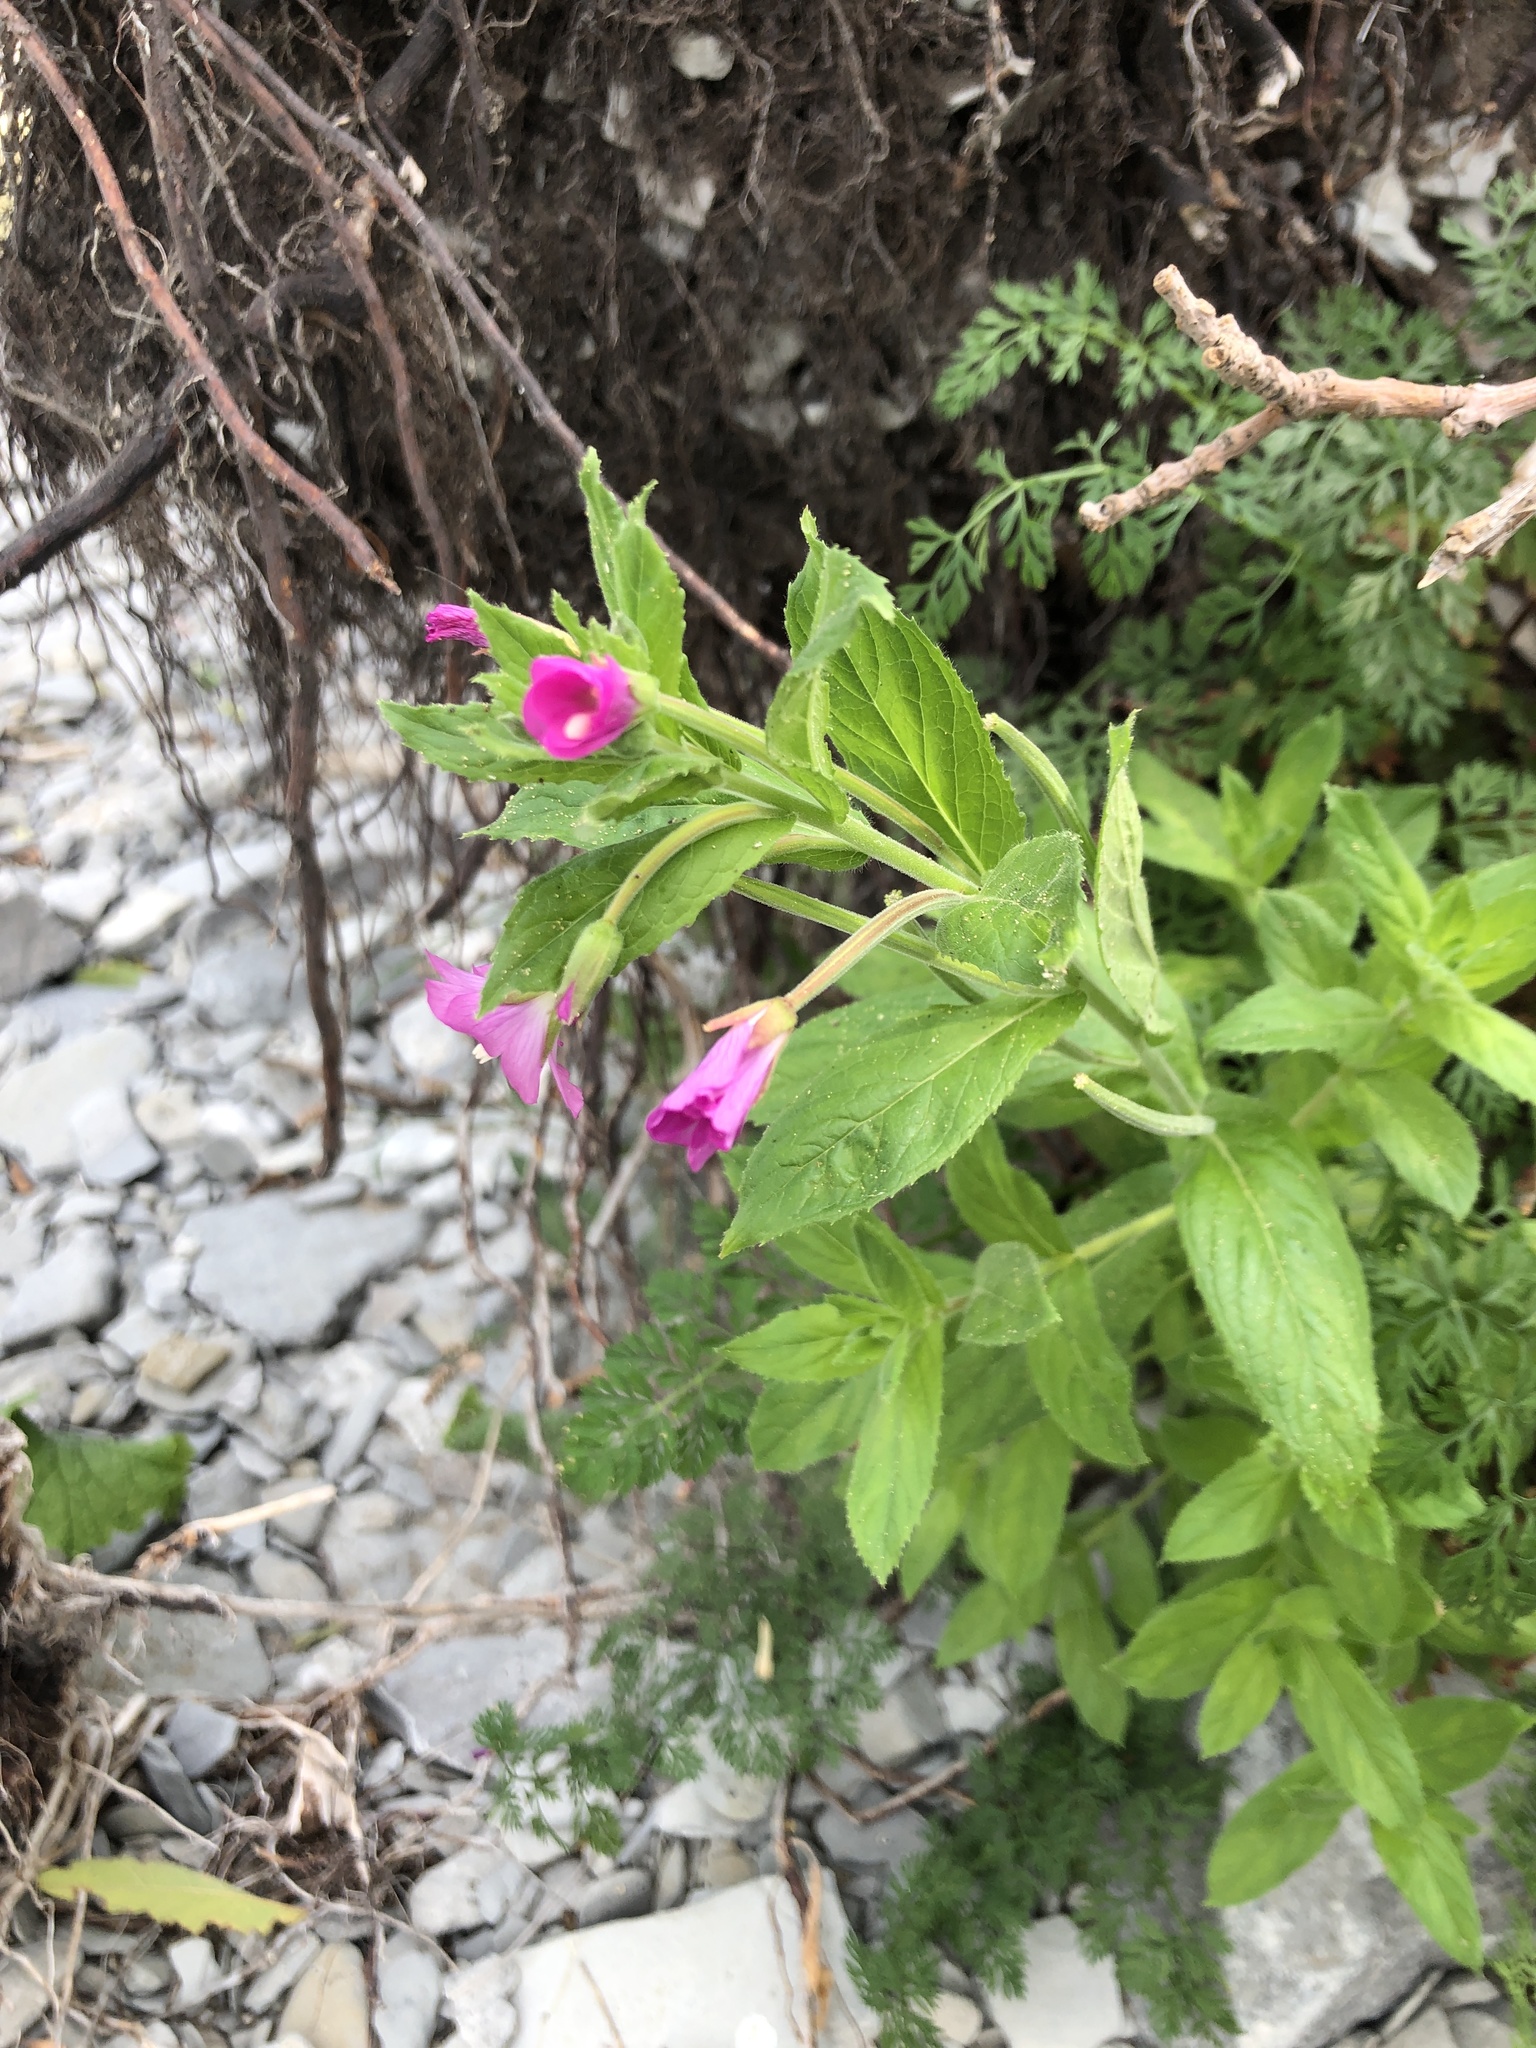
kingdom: Plantae
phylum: Tracheophyta
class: Magnoliopsida
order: Myrtales
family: Onagraceae
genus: Epilobium
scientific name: Epilobium hirsutum
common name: Great willowherb
